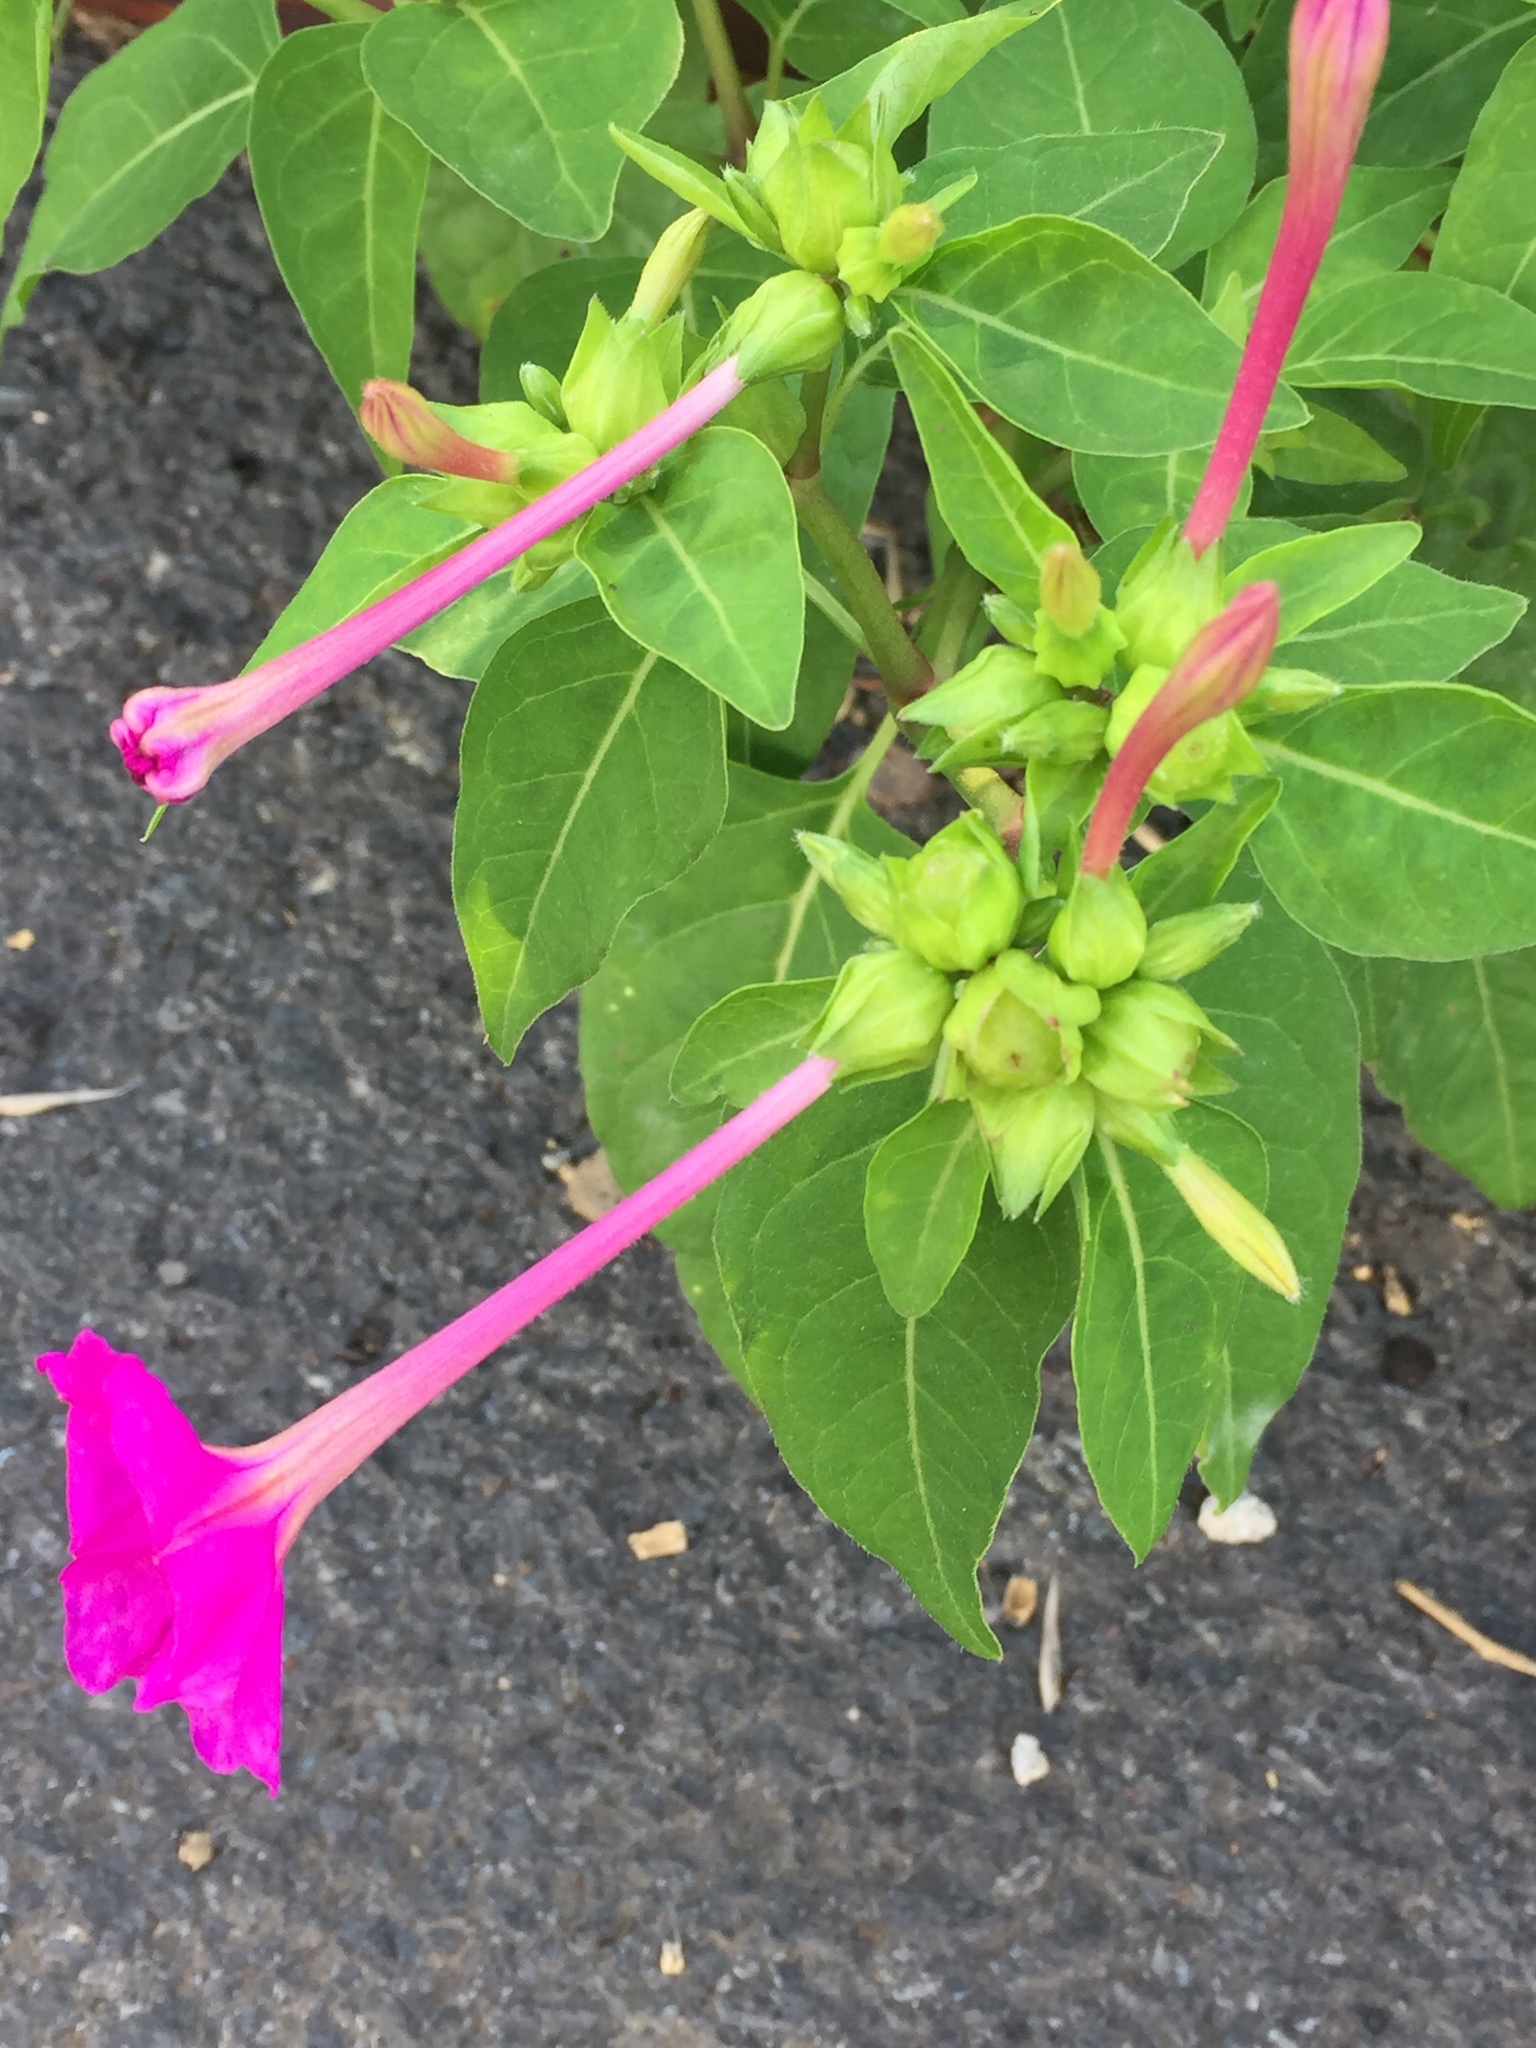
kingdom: Plantae
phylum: Tracheophyta
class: Magnoliopsida
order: Caryophyllales
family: Nyctaginaceae
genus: Mirabilis
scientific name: Mirabilis jalapa
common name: Marvel-of-peru
